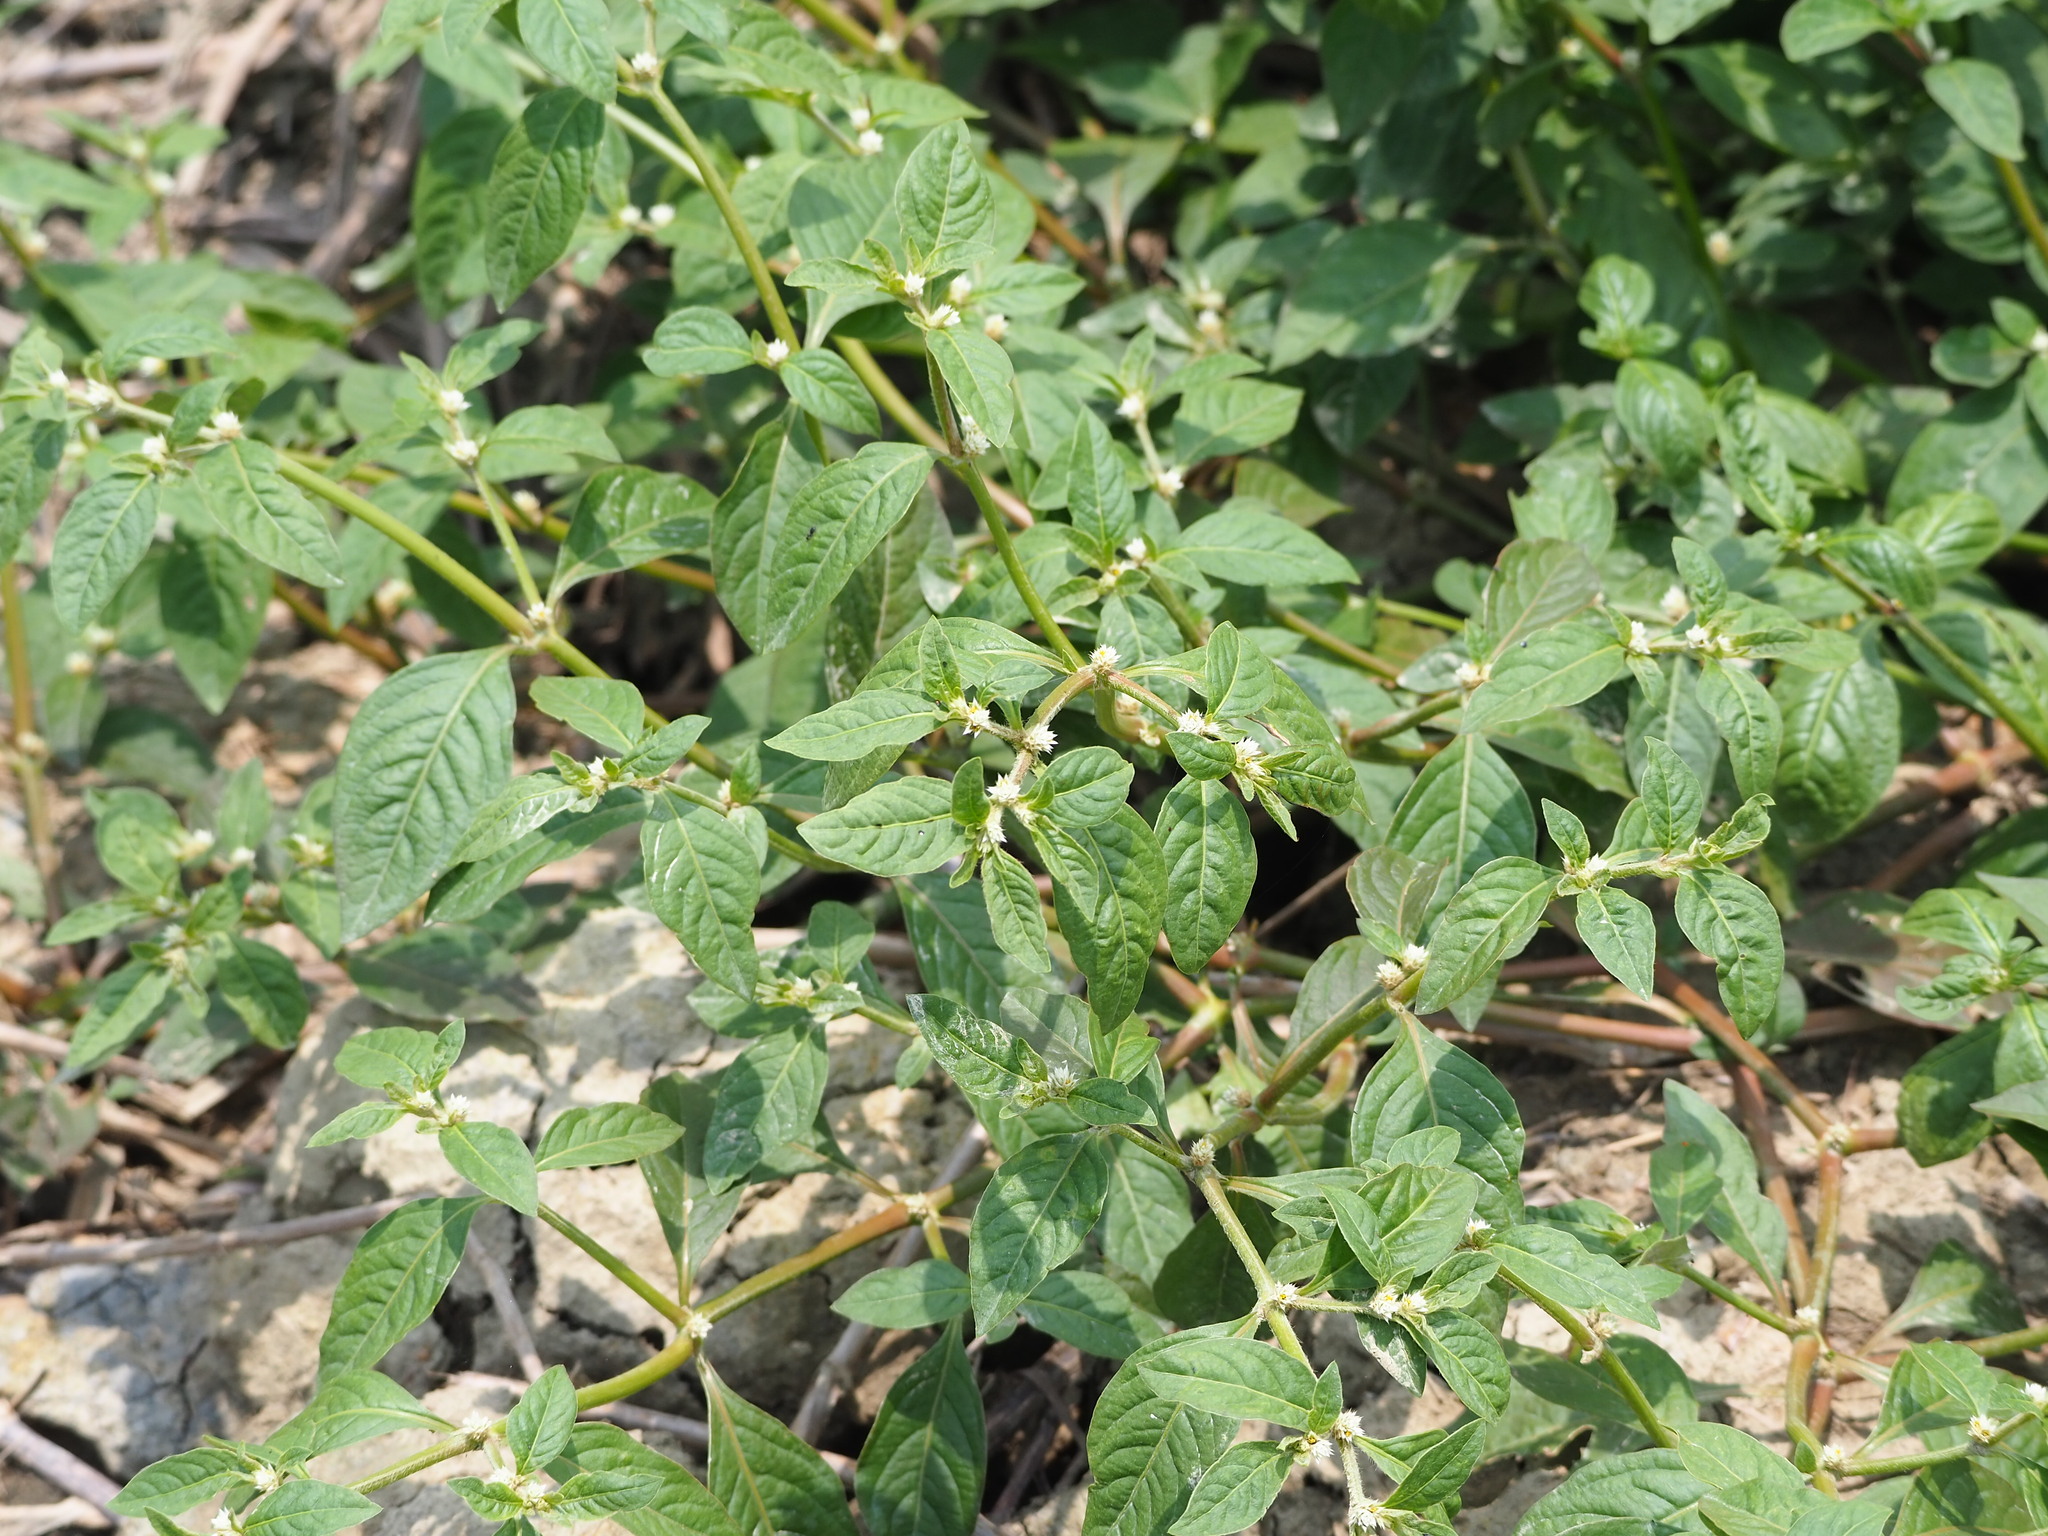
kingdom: Plantae
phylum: Tracheophyta
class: Magnoliopsida
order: Caryophyllales
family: Amaranthaceae
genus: Alternanthera
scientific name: Alternanthera ficoidea
